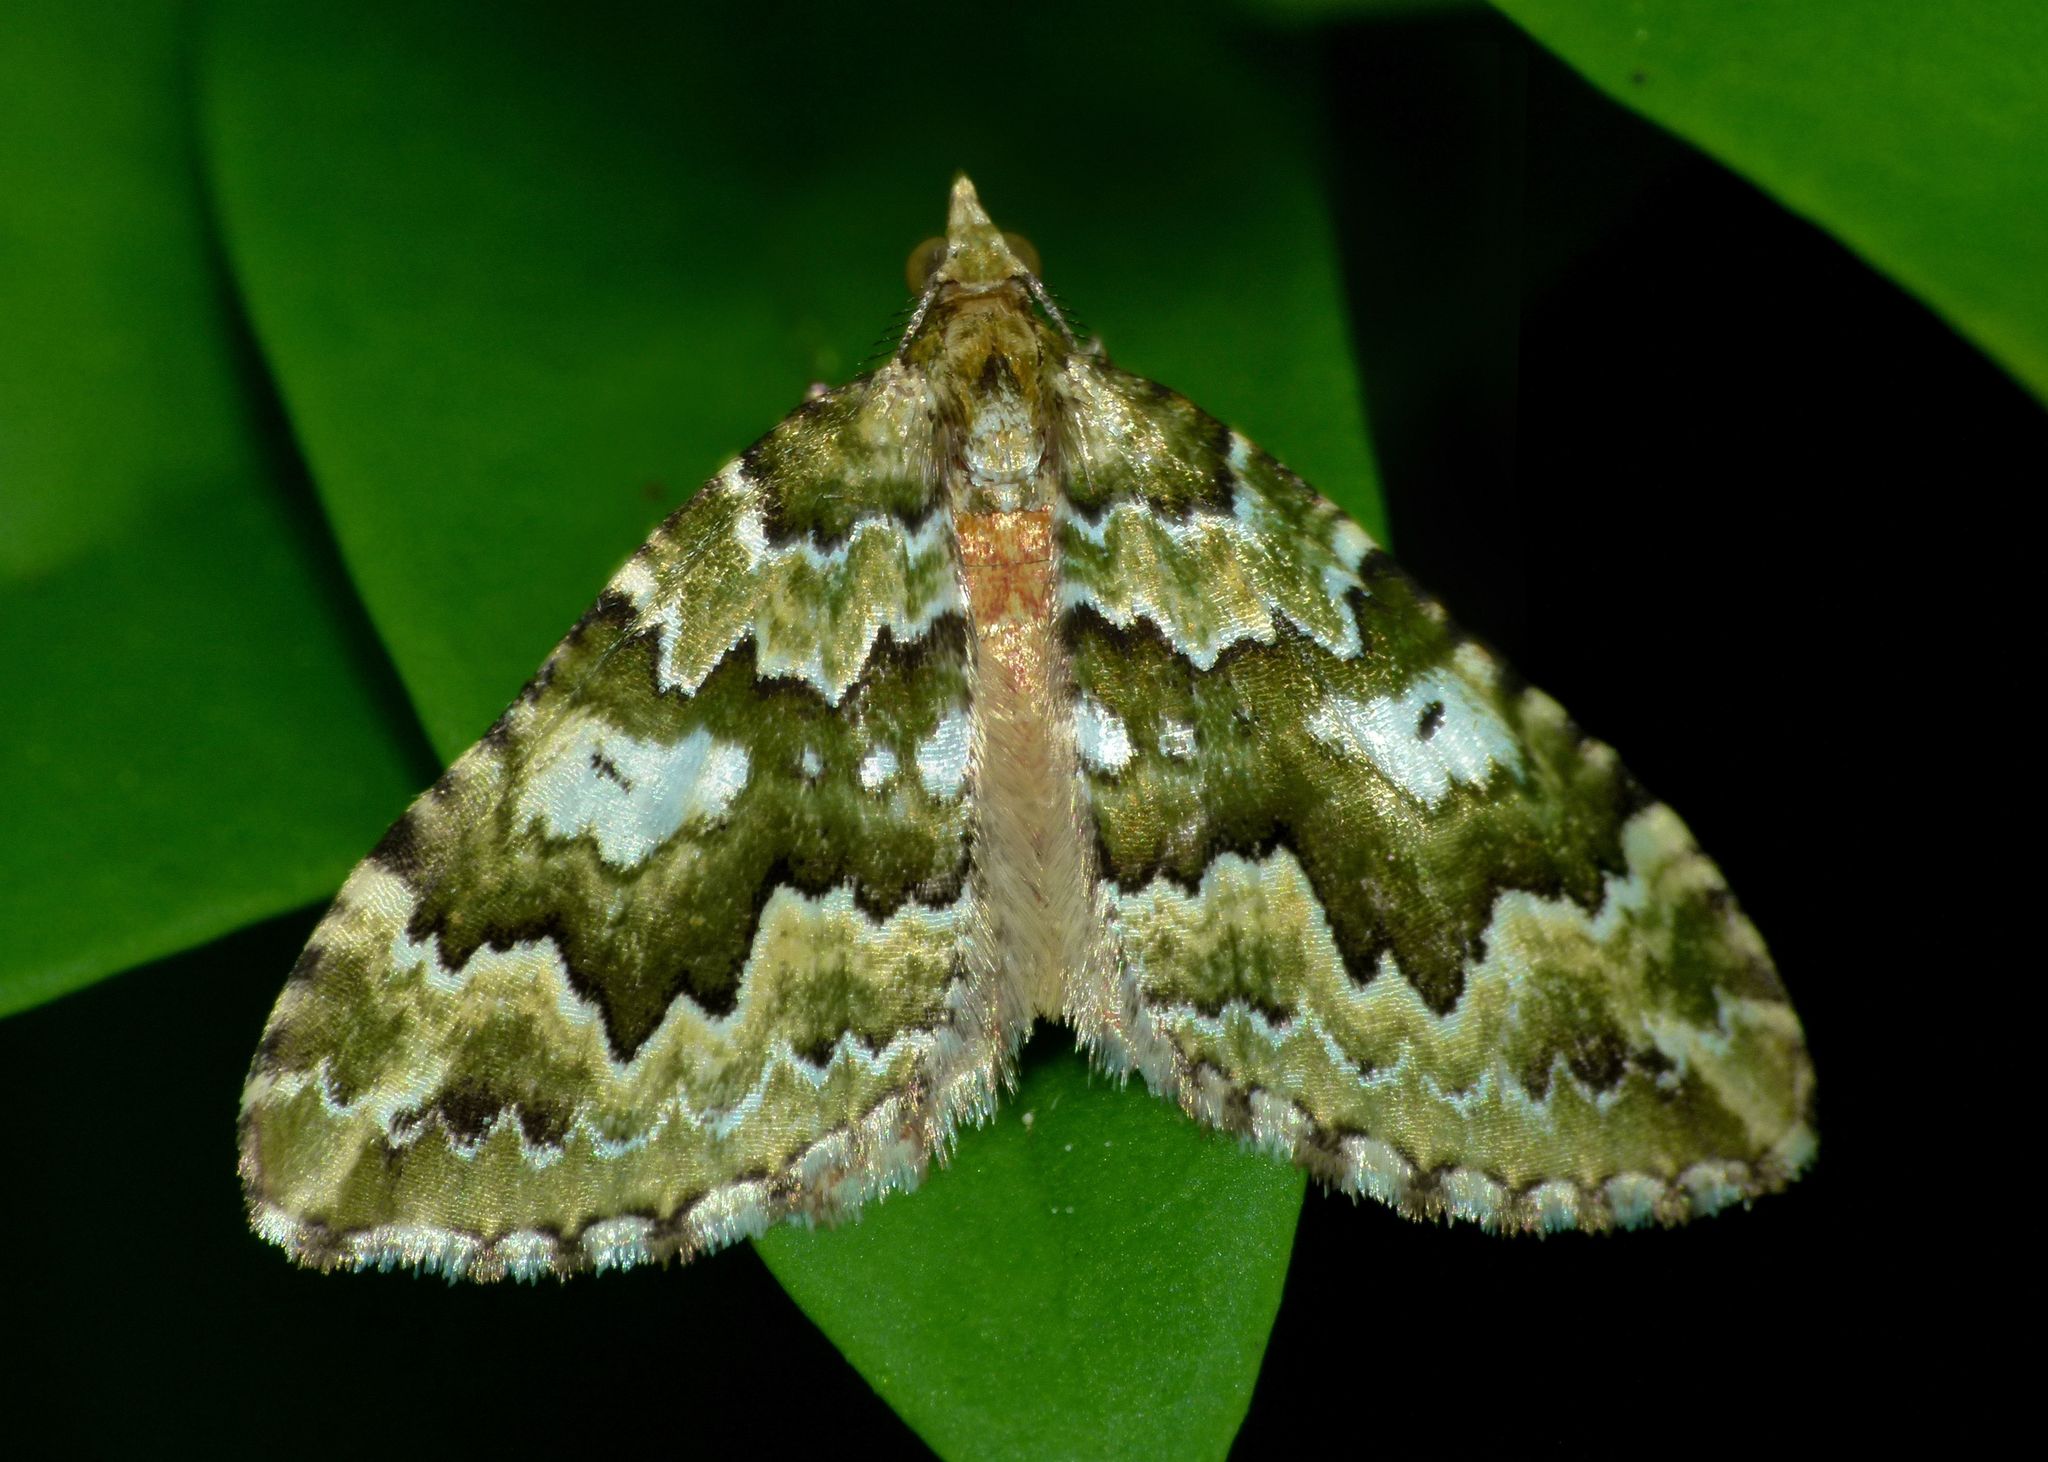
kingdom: Animalia
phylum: Arthropoda
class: Insecta
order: Lepidoptera
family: Geometridae
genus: Asaphodes
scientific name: Asaphodes beata
